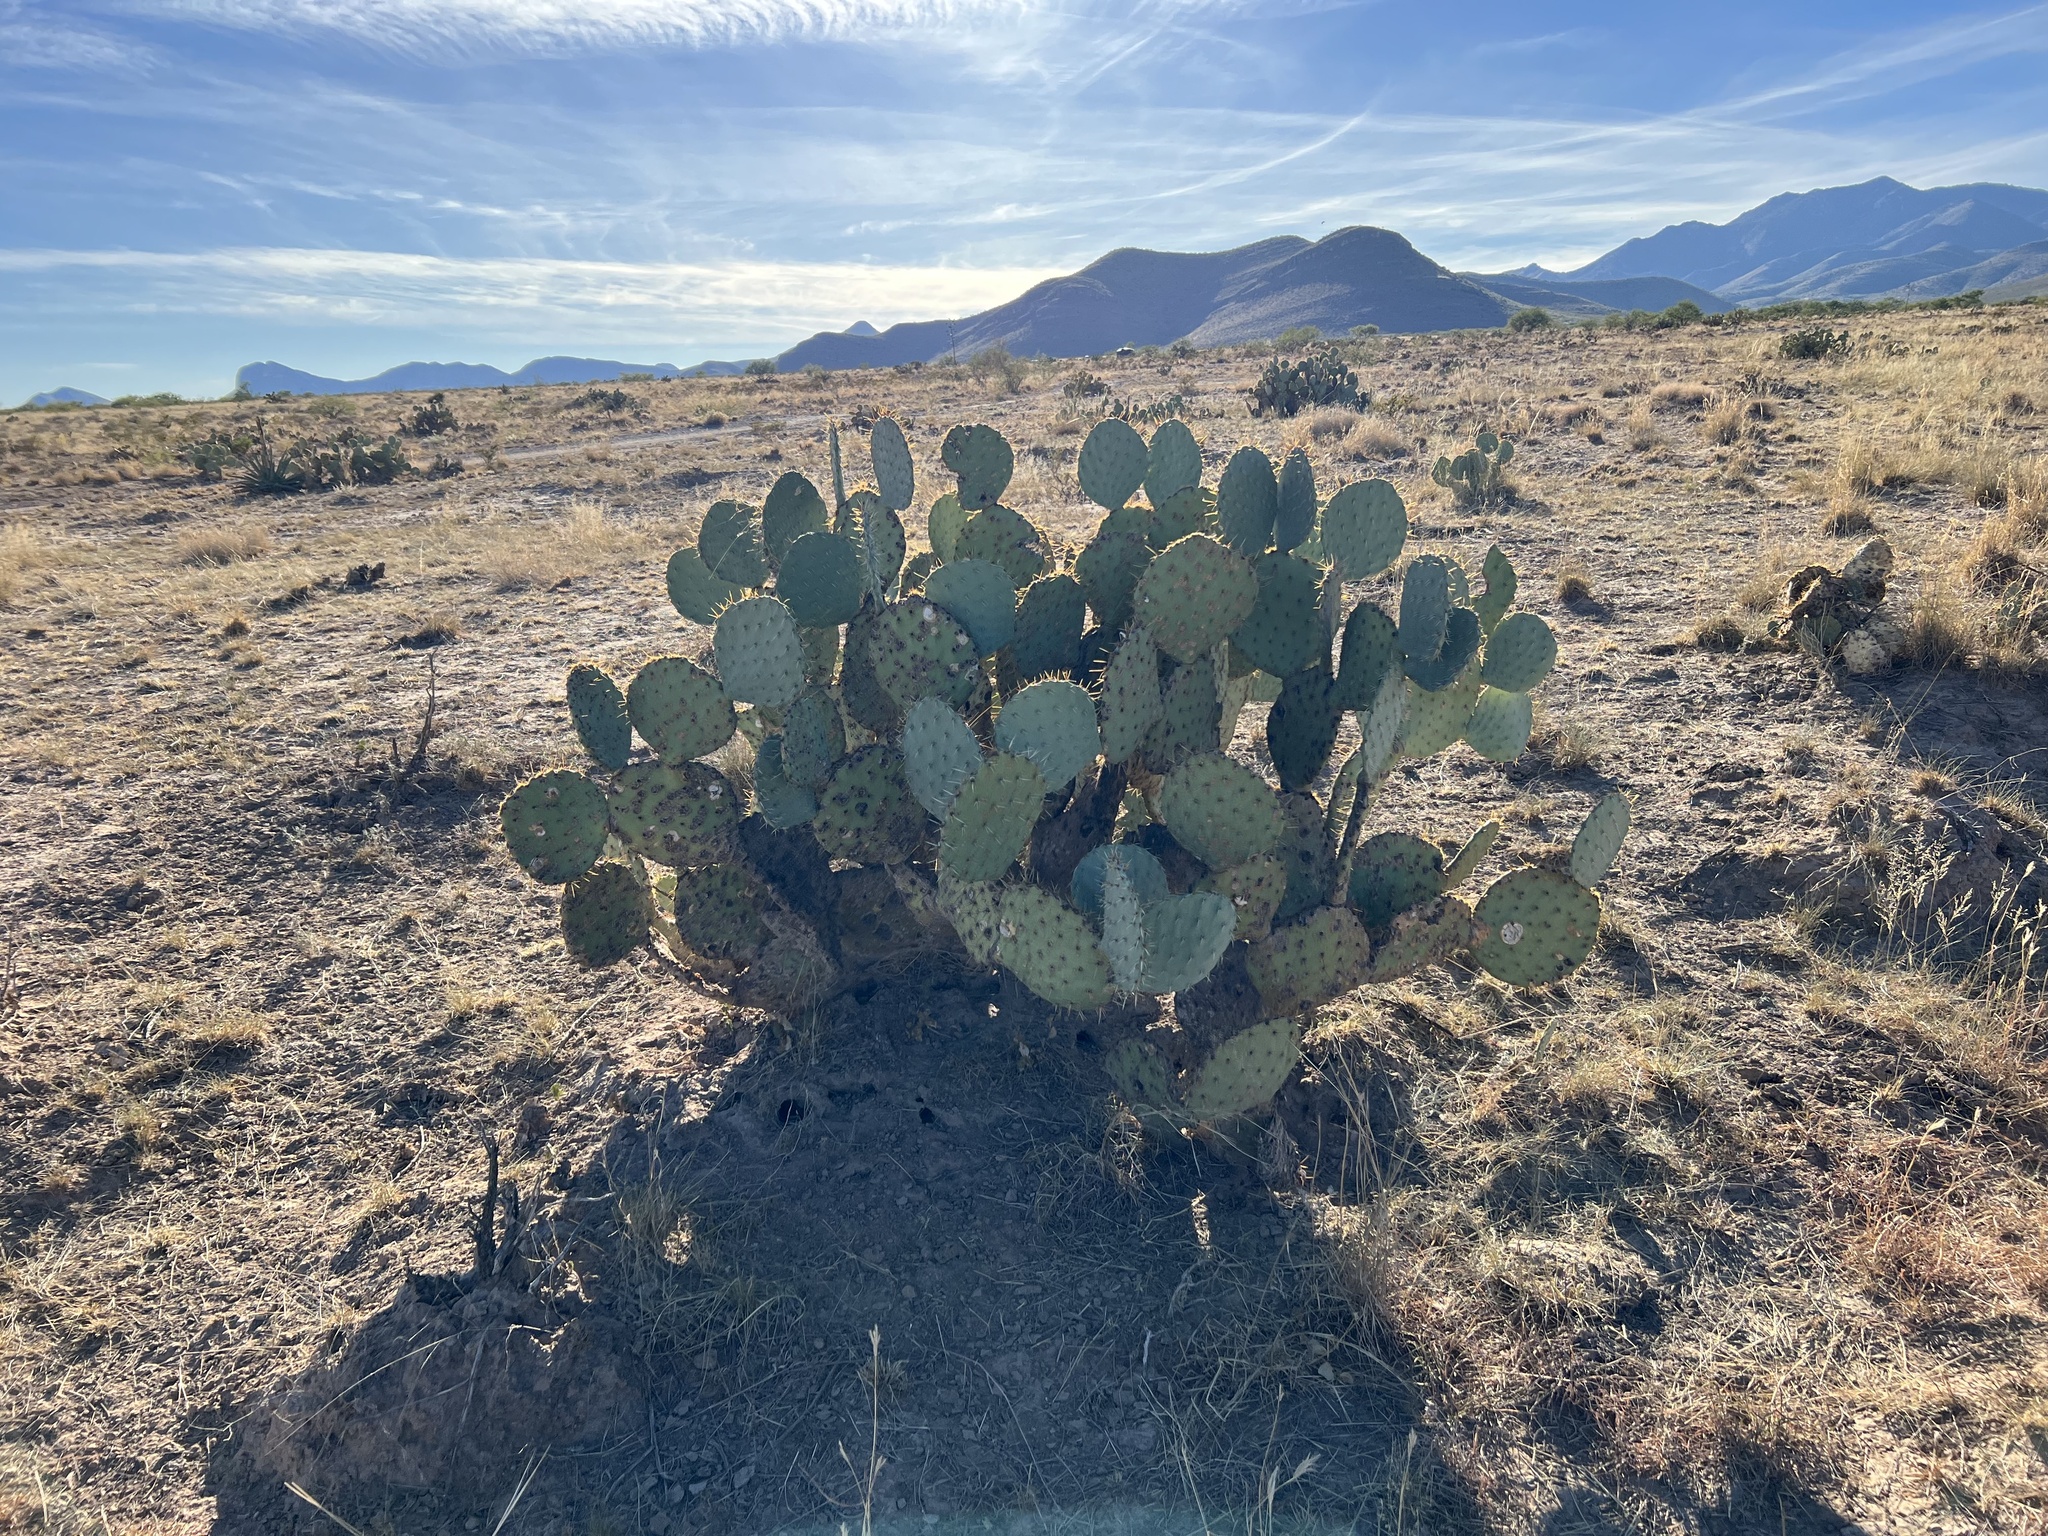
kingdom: Plantae
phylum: Tracheophyta
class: Magnoliopsida
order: Caryophyllales
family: Cactaceae
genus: Opuntia
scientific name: Opuntia engelmannii
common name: Cactus-apple
